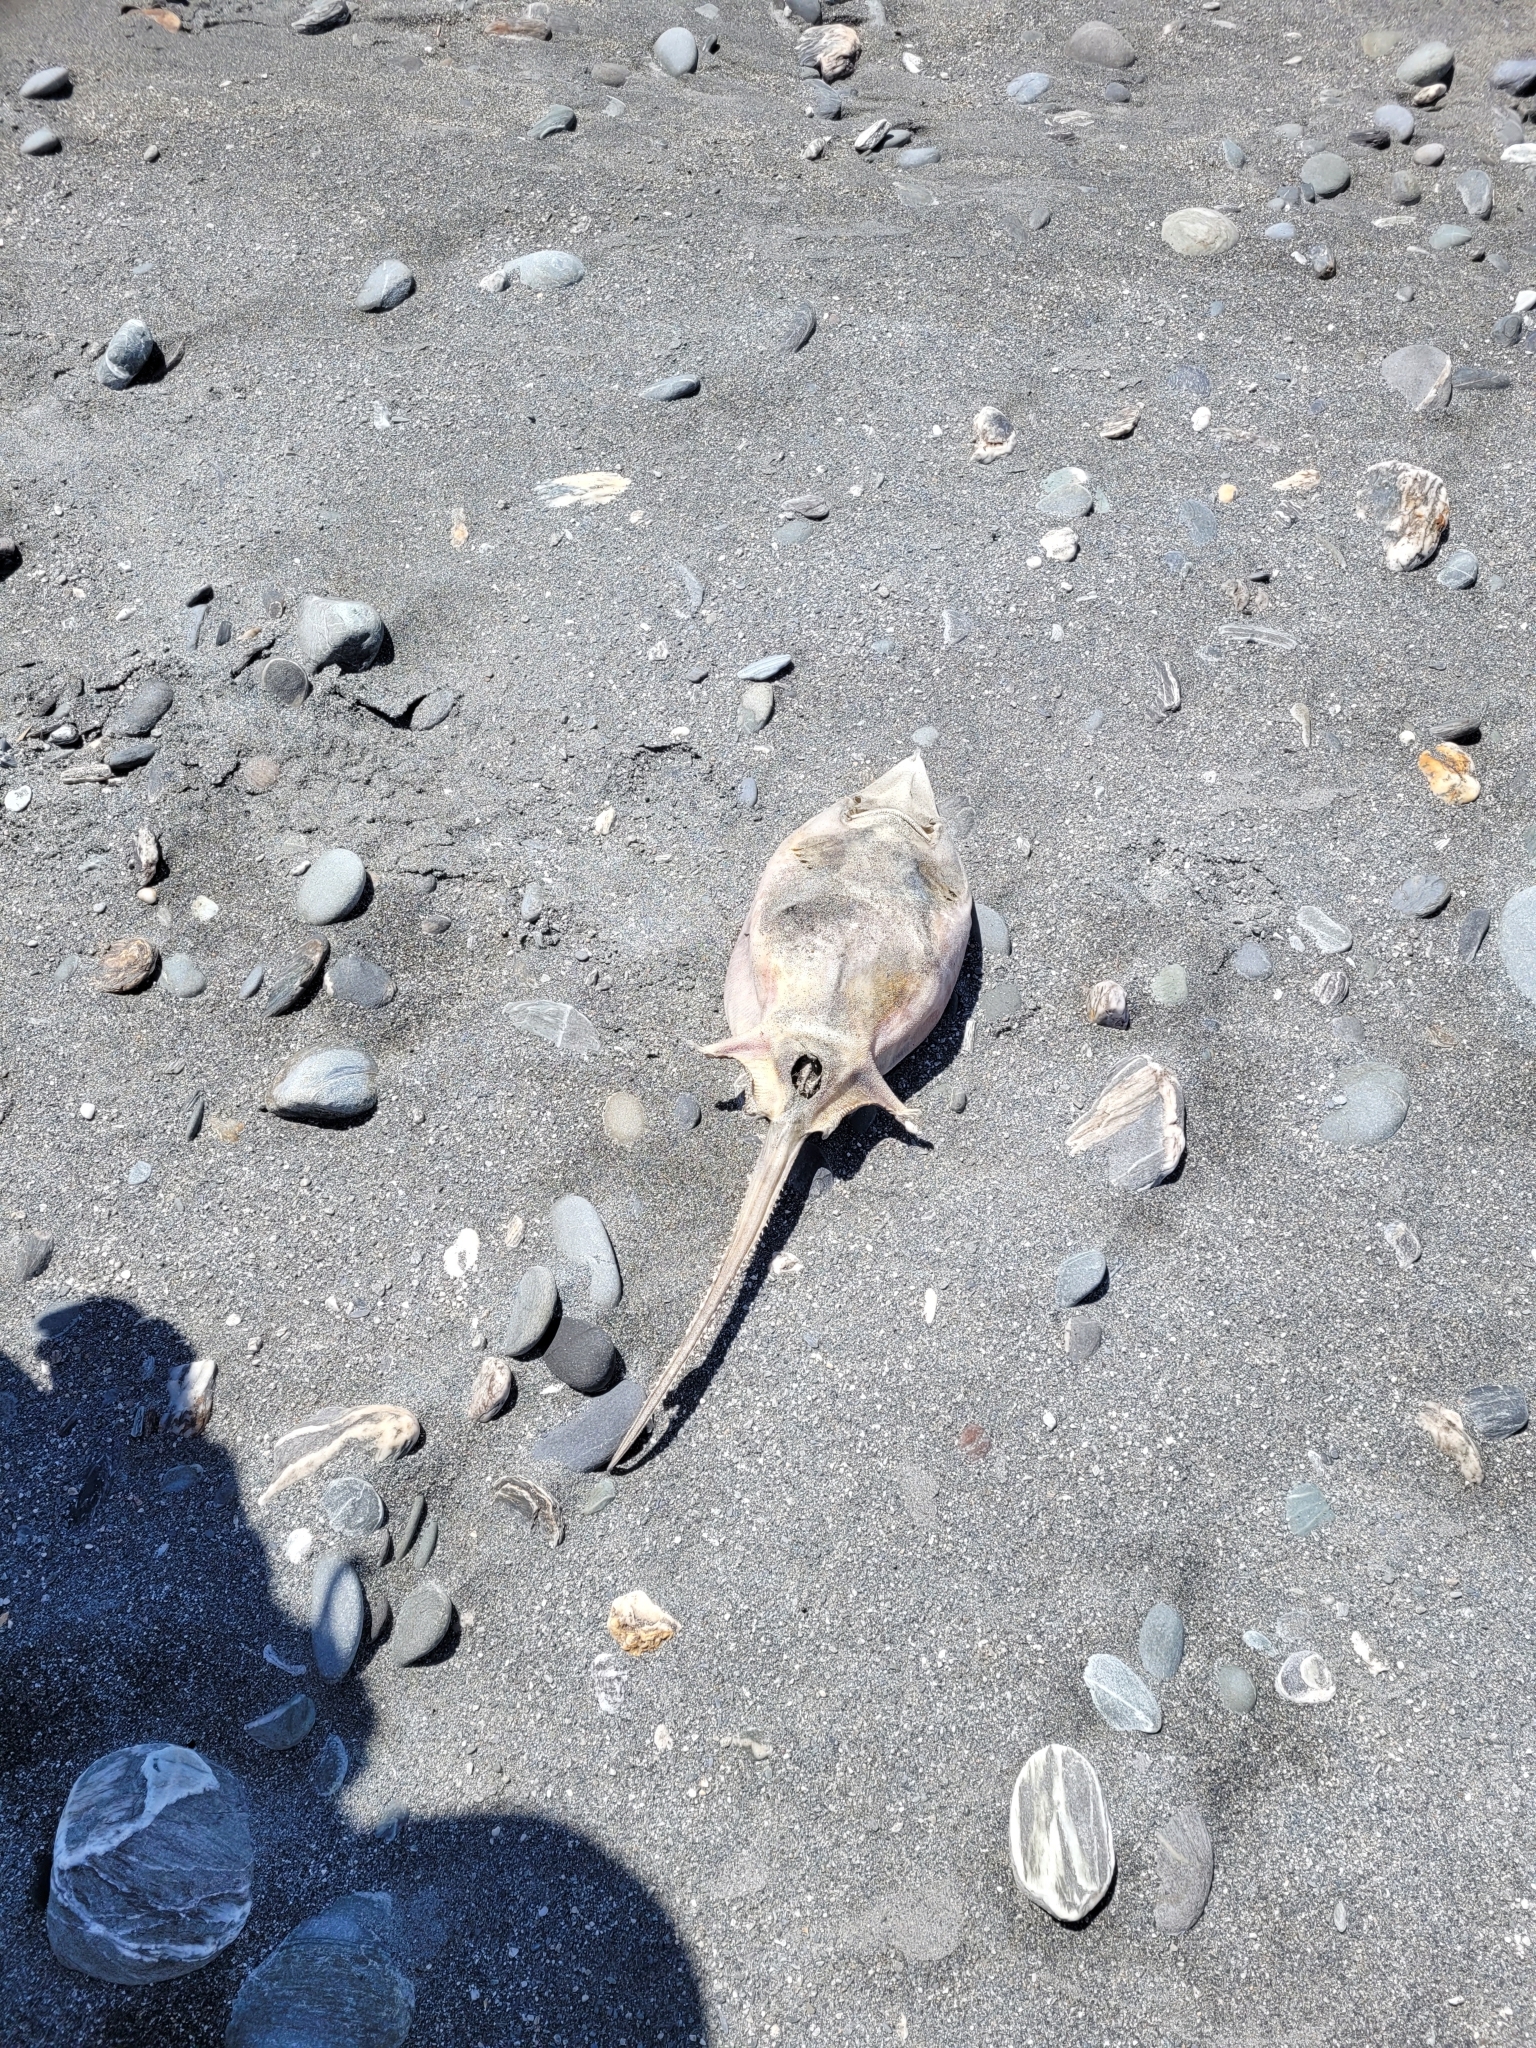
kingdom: Animalia
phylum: Chordata
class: Elasmobranchii
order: Rajiformes
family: Rajidae
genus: Zearaja
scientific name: Zearaja nasuta
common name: New zealand rough skate
